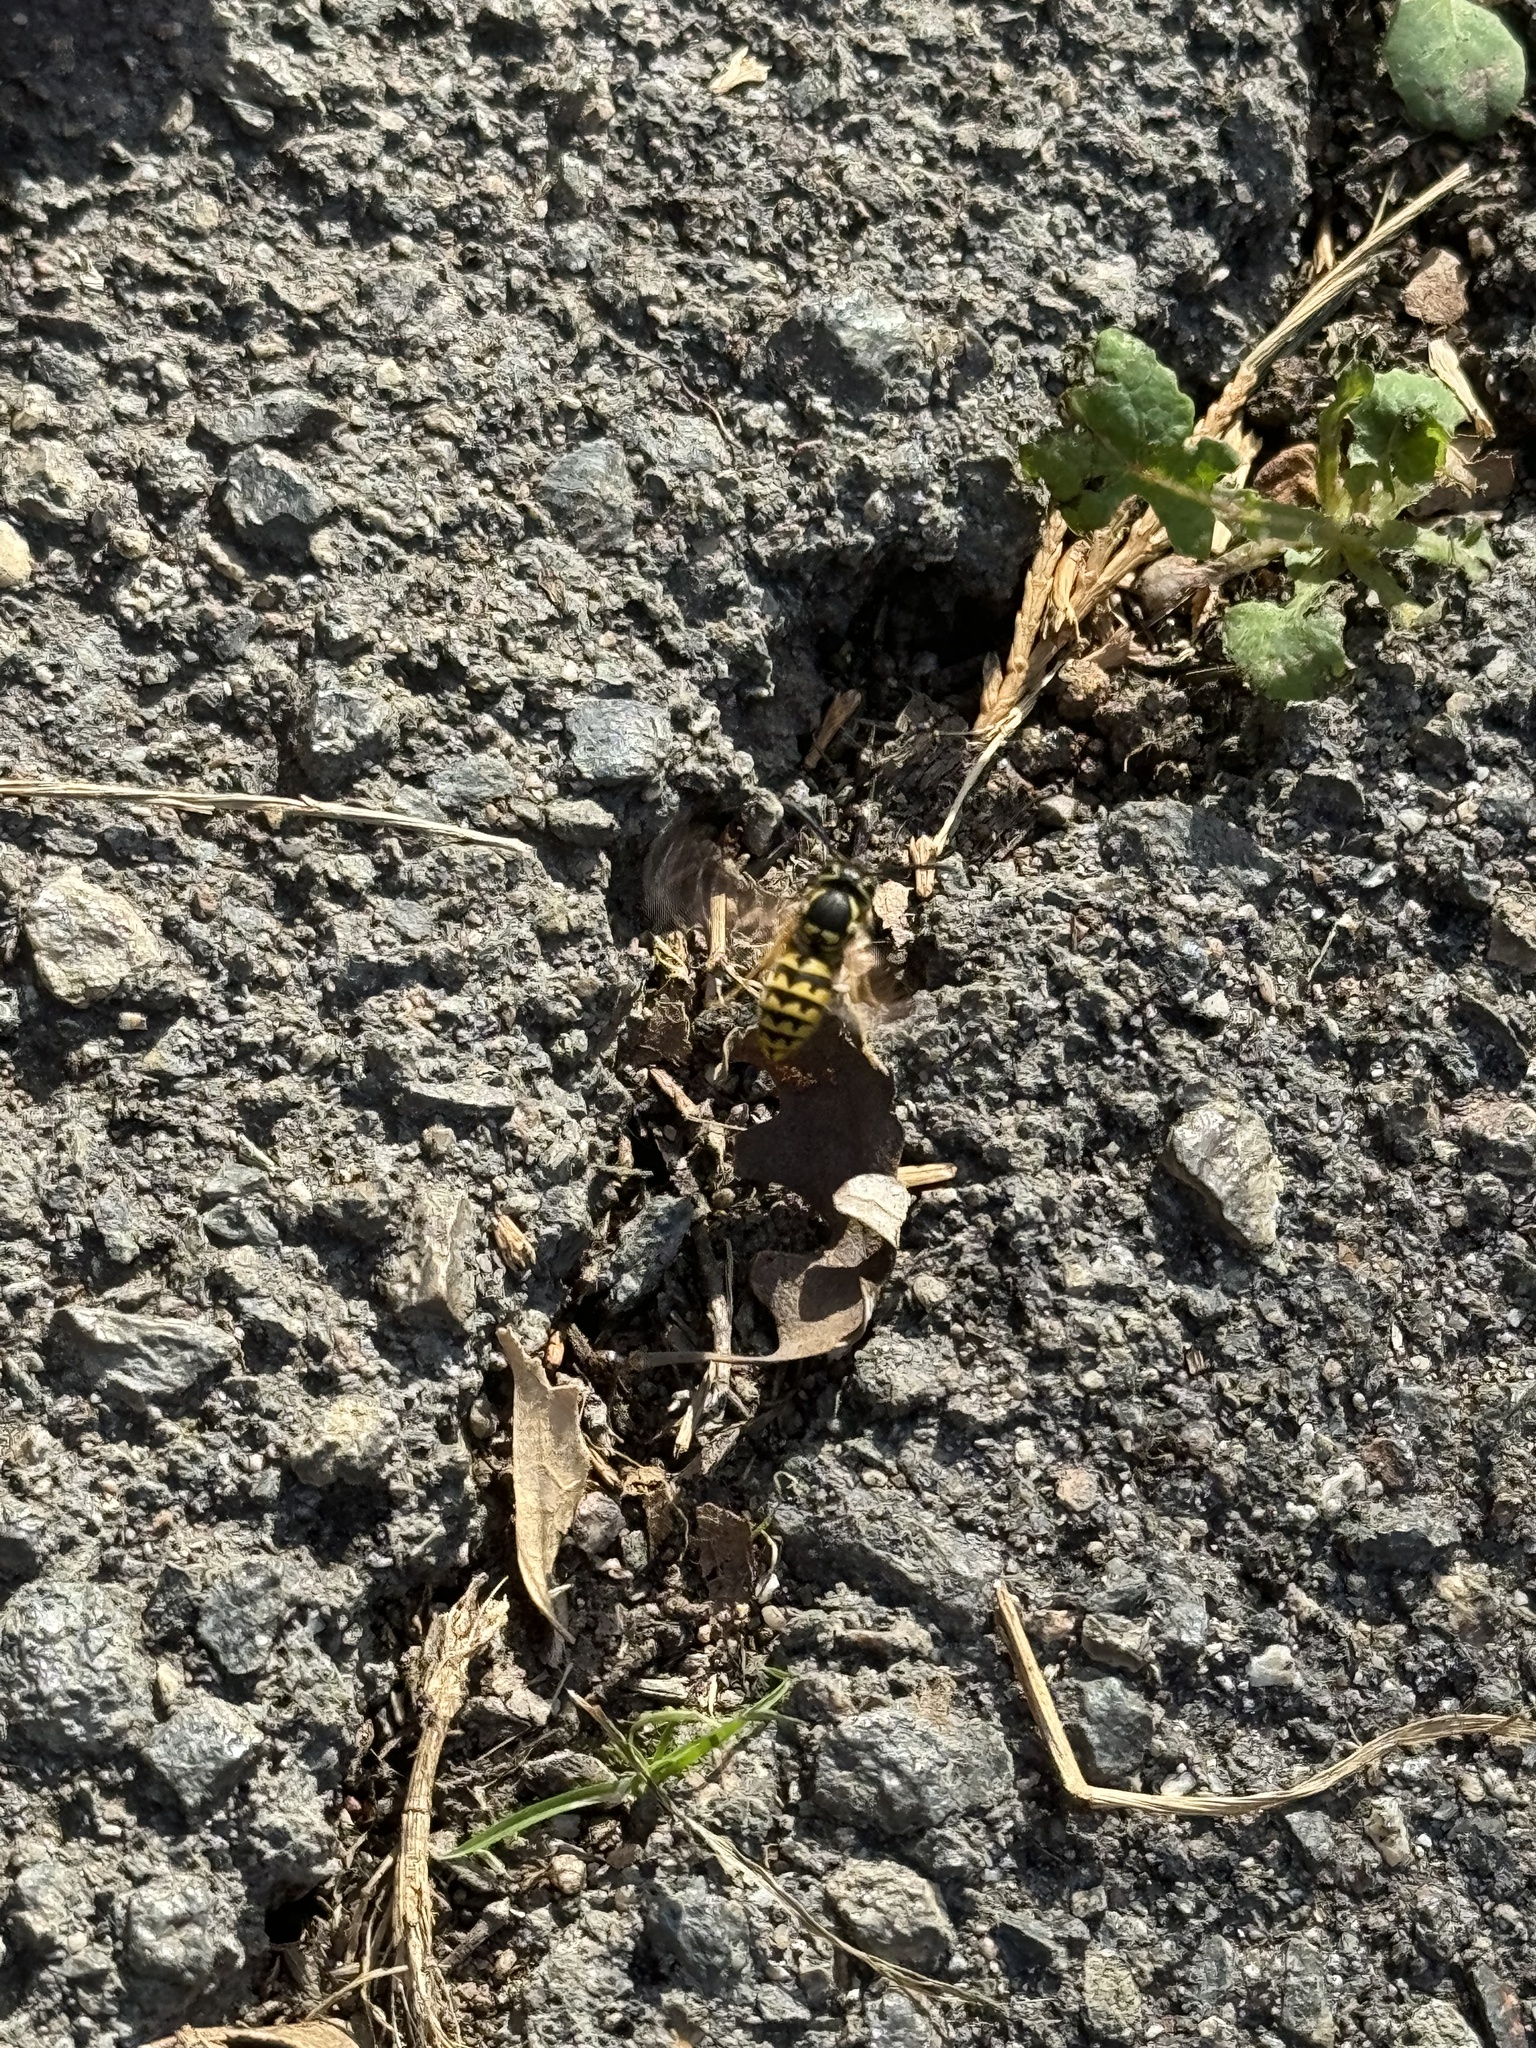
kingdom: Animalia
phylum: Arthropoda
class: Insecta
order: Hymenoptera
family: Vespidae
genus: Vespula
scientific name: Vespula pensylvanica
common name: Western yellowjacket
